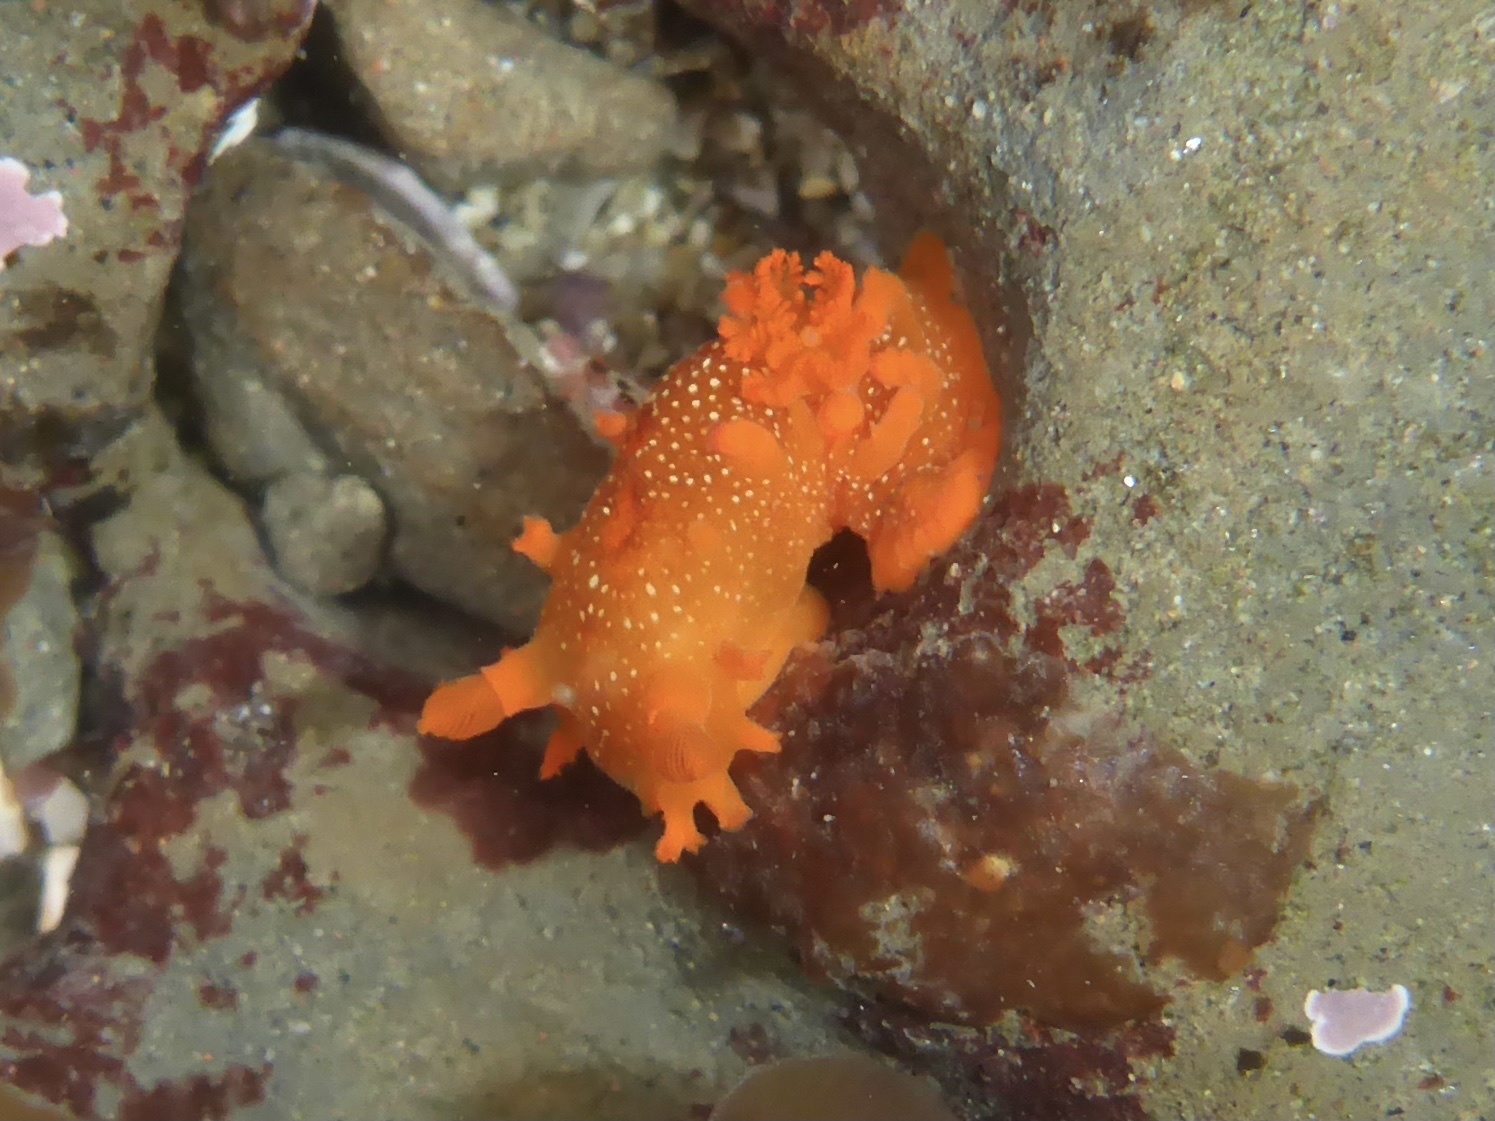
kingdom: Animalia
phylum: Mollusca
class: Gastropoda
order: Nudibranchia
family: Polyceridae
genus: Triopha
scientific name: Triopha maculata
